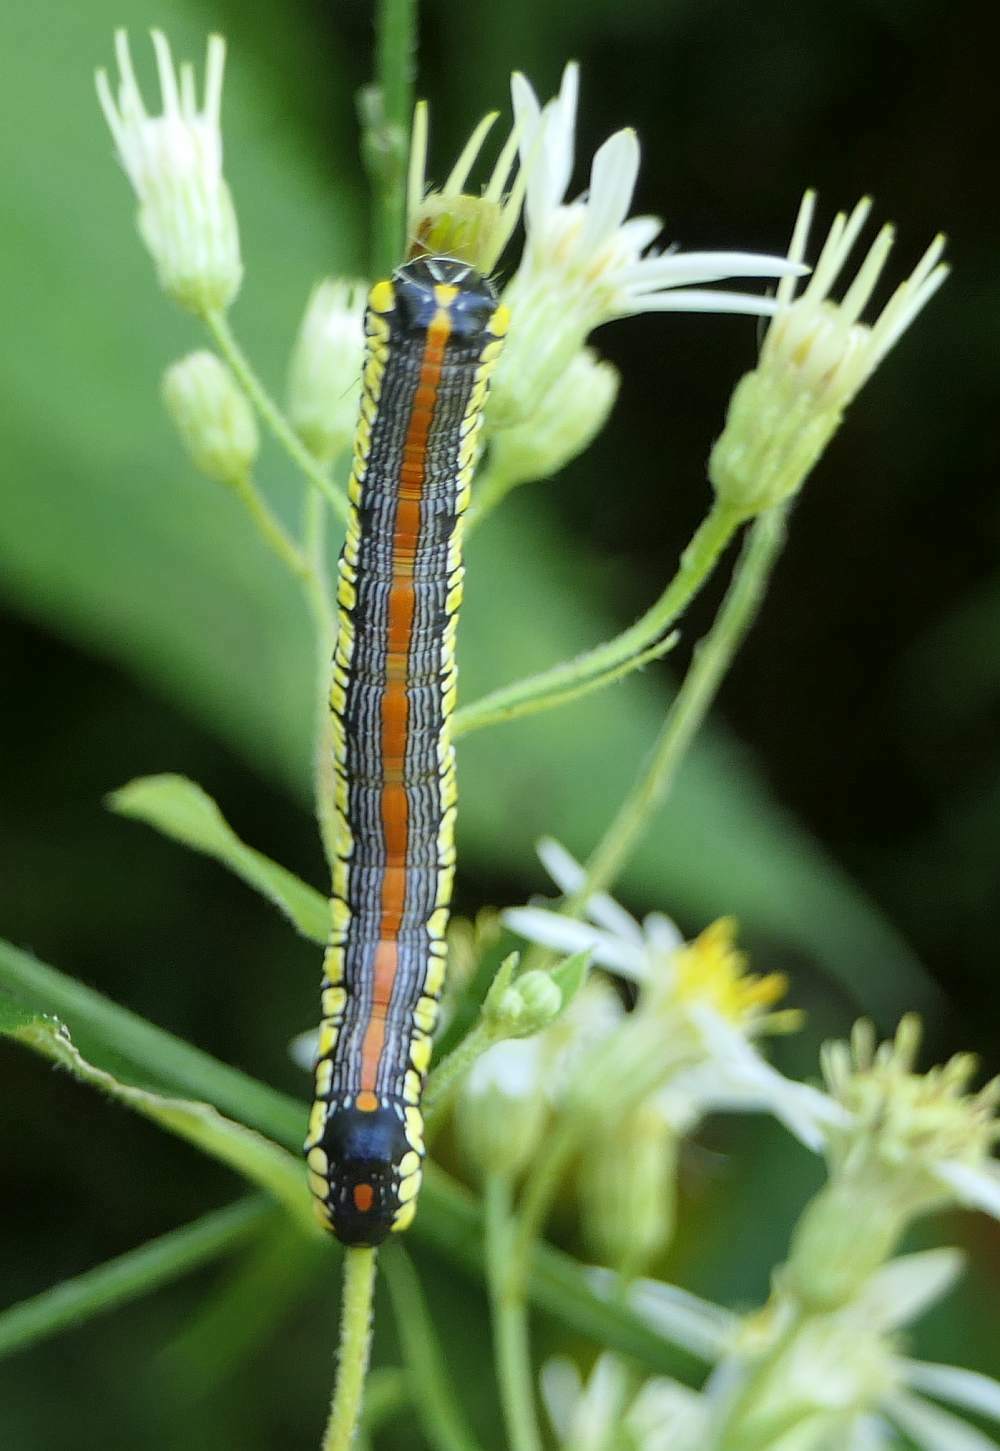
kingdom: Animalia
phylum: Arthropoda
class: Insecta
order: Lepidoptera
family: Noctuidae
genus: Cucullia
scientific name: Cucullia convexipennis
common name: Brown-hooded owlet
